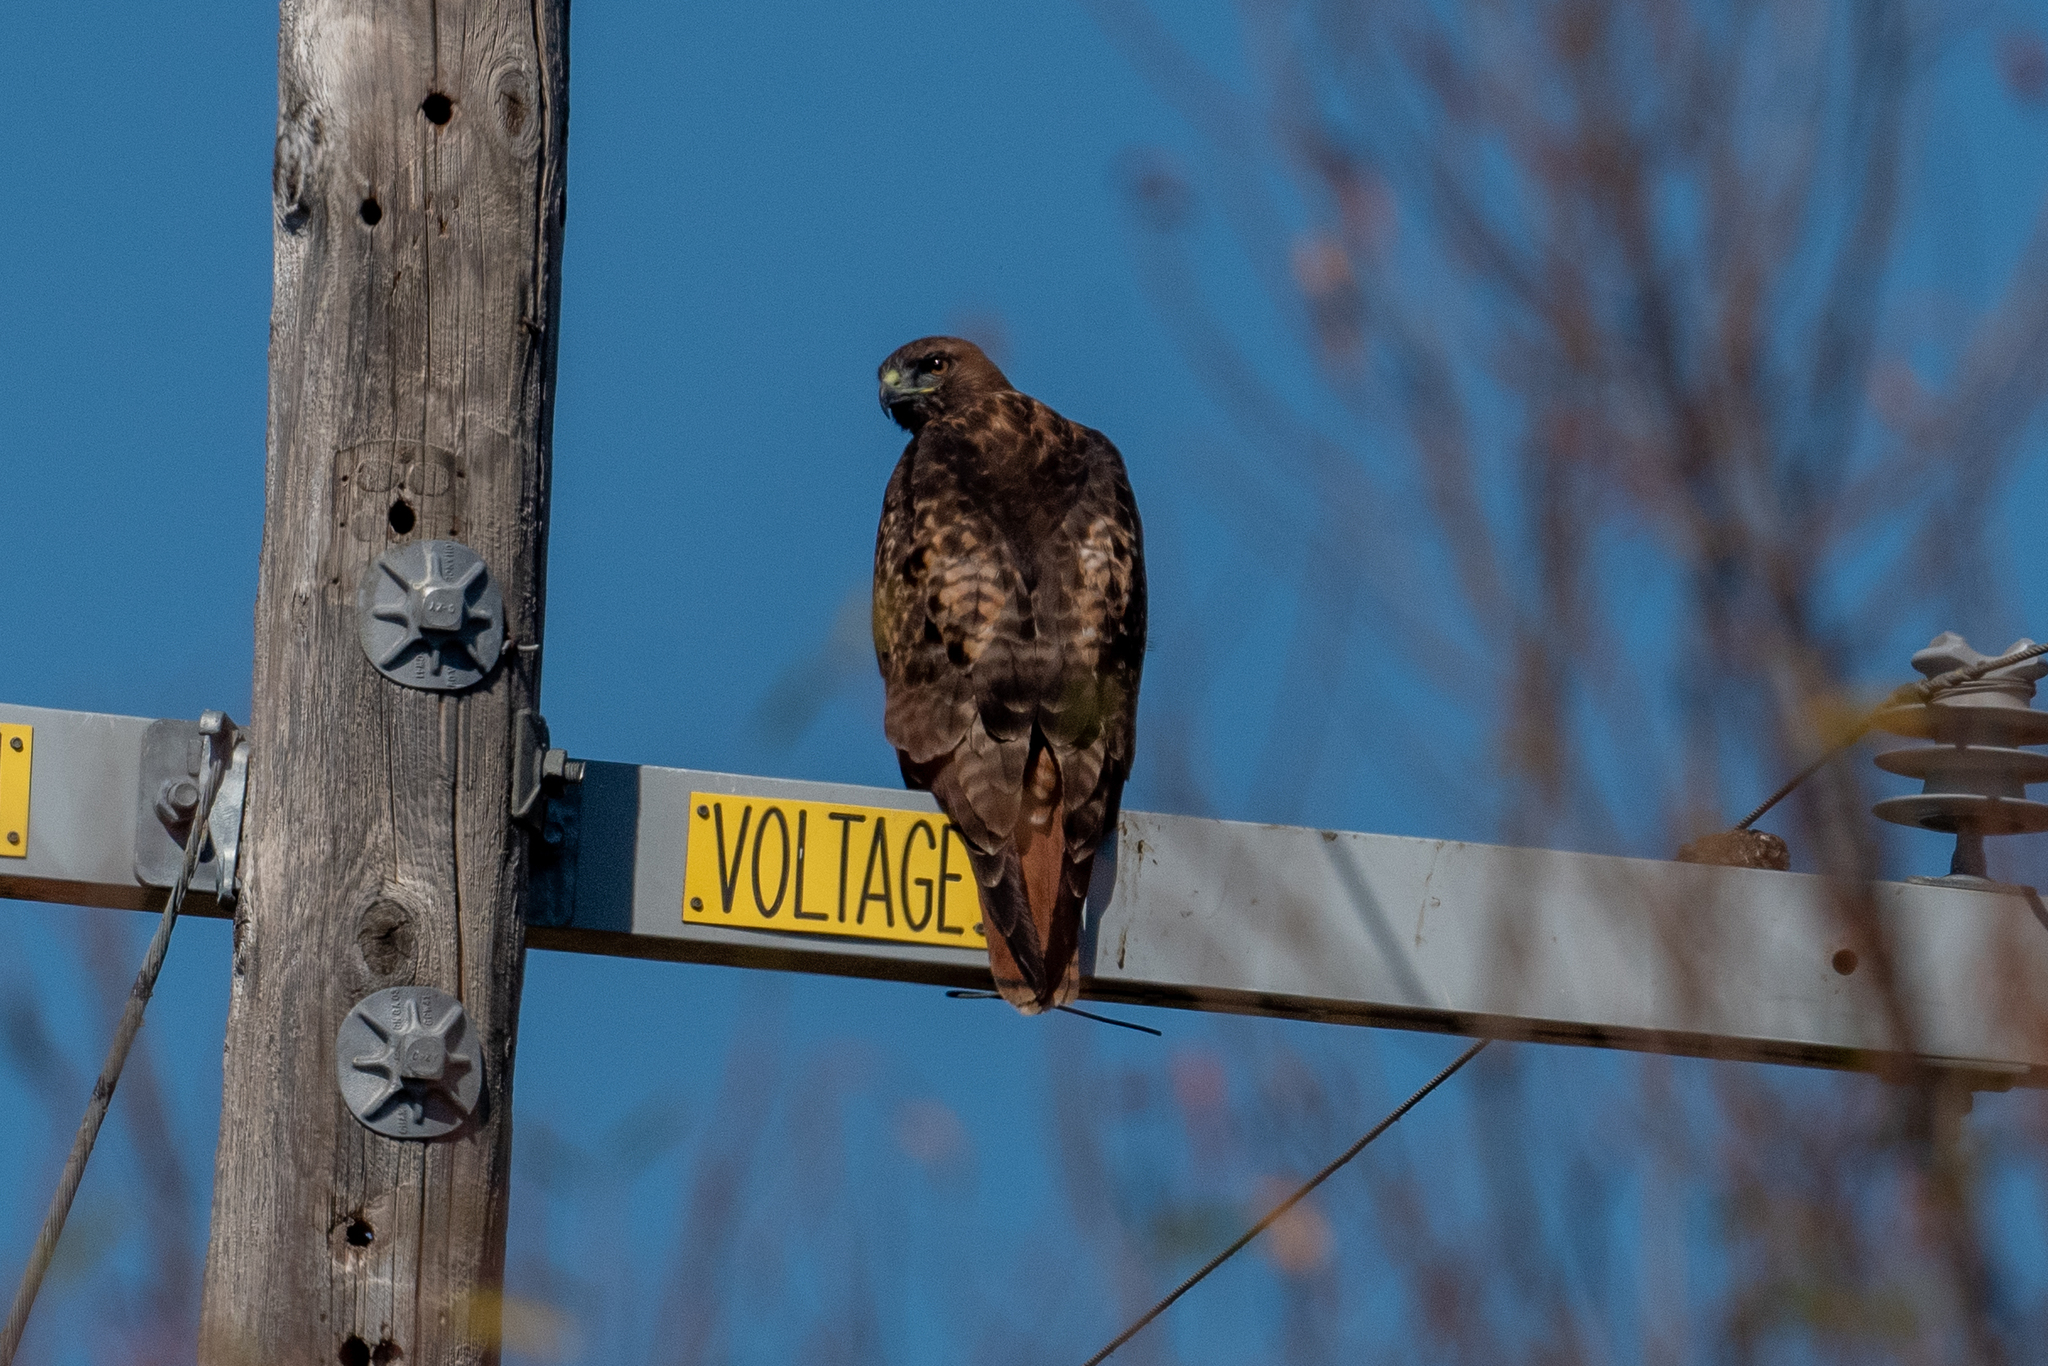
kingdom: Animalia
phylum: Chordata
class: Aves
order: Accipitriformes
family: Accipitridae
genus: Buteo
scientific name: Buteo jamaicensis
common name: Red-tailed hawk
